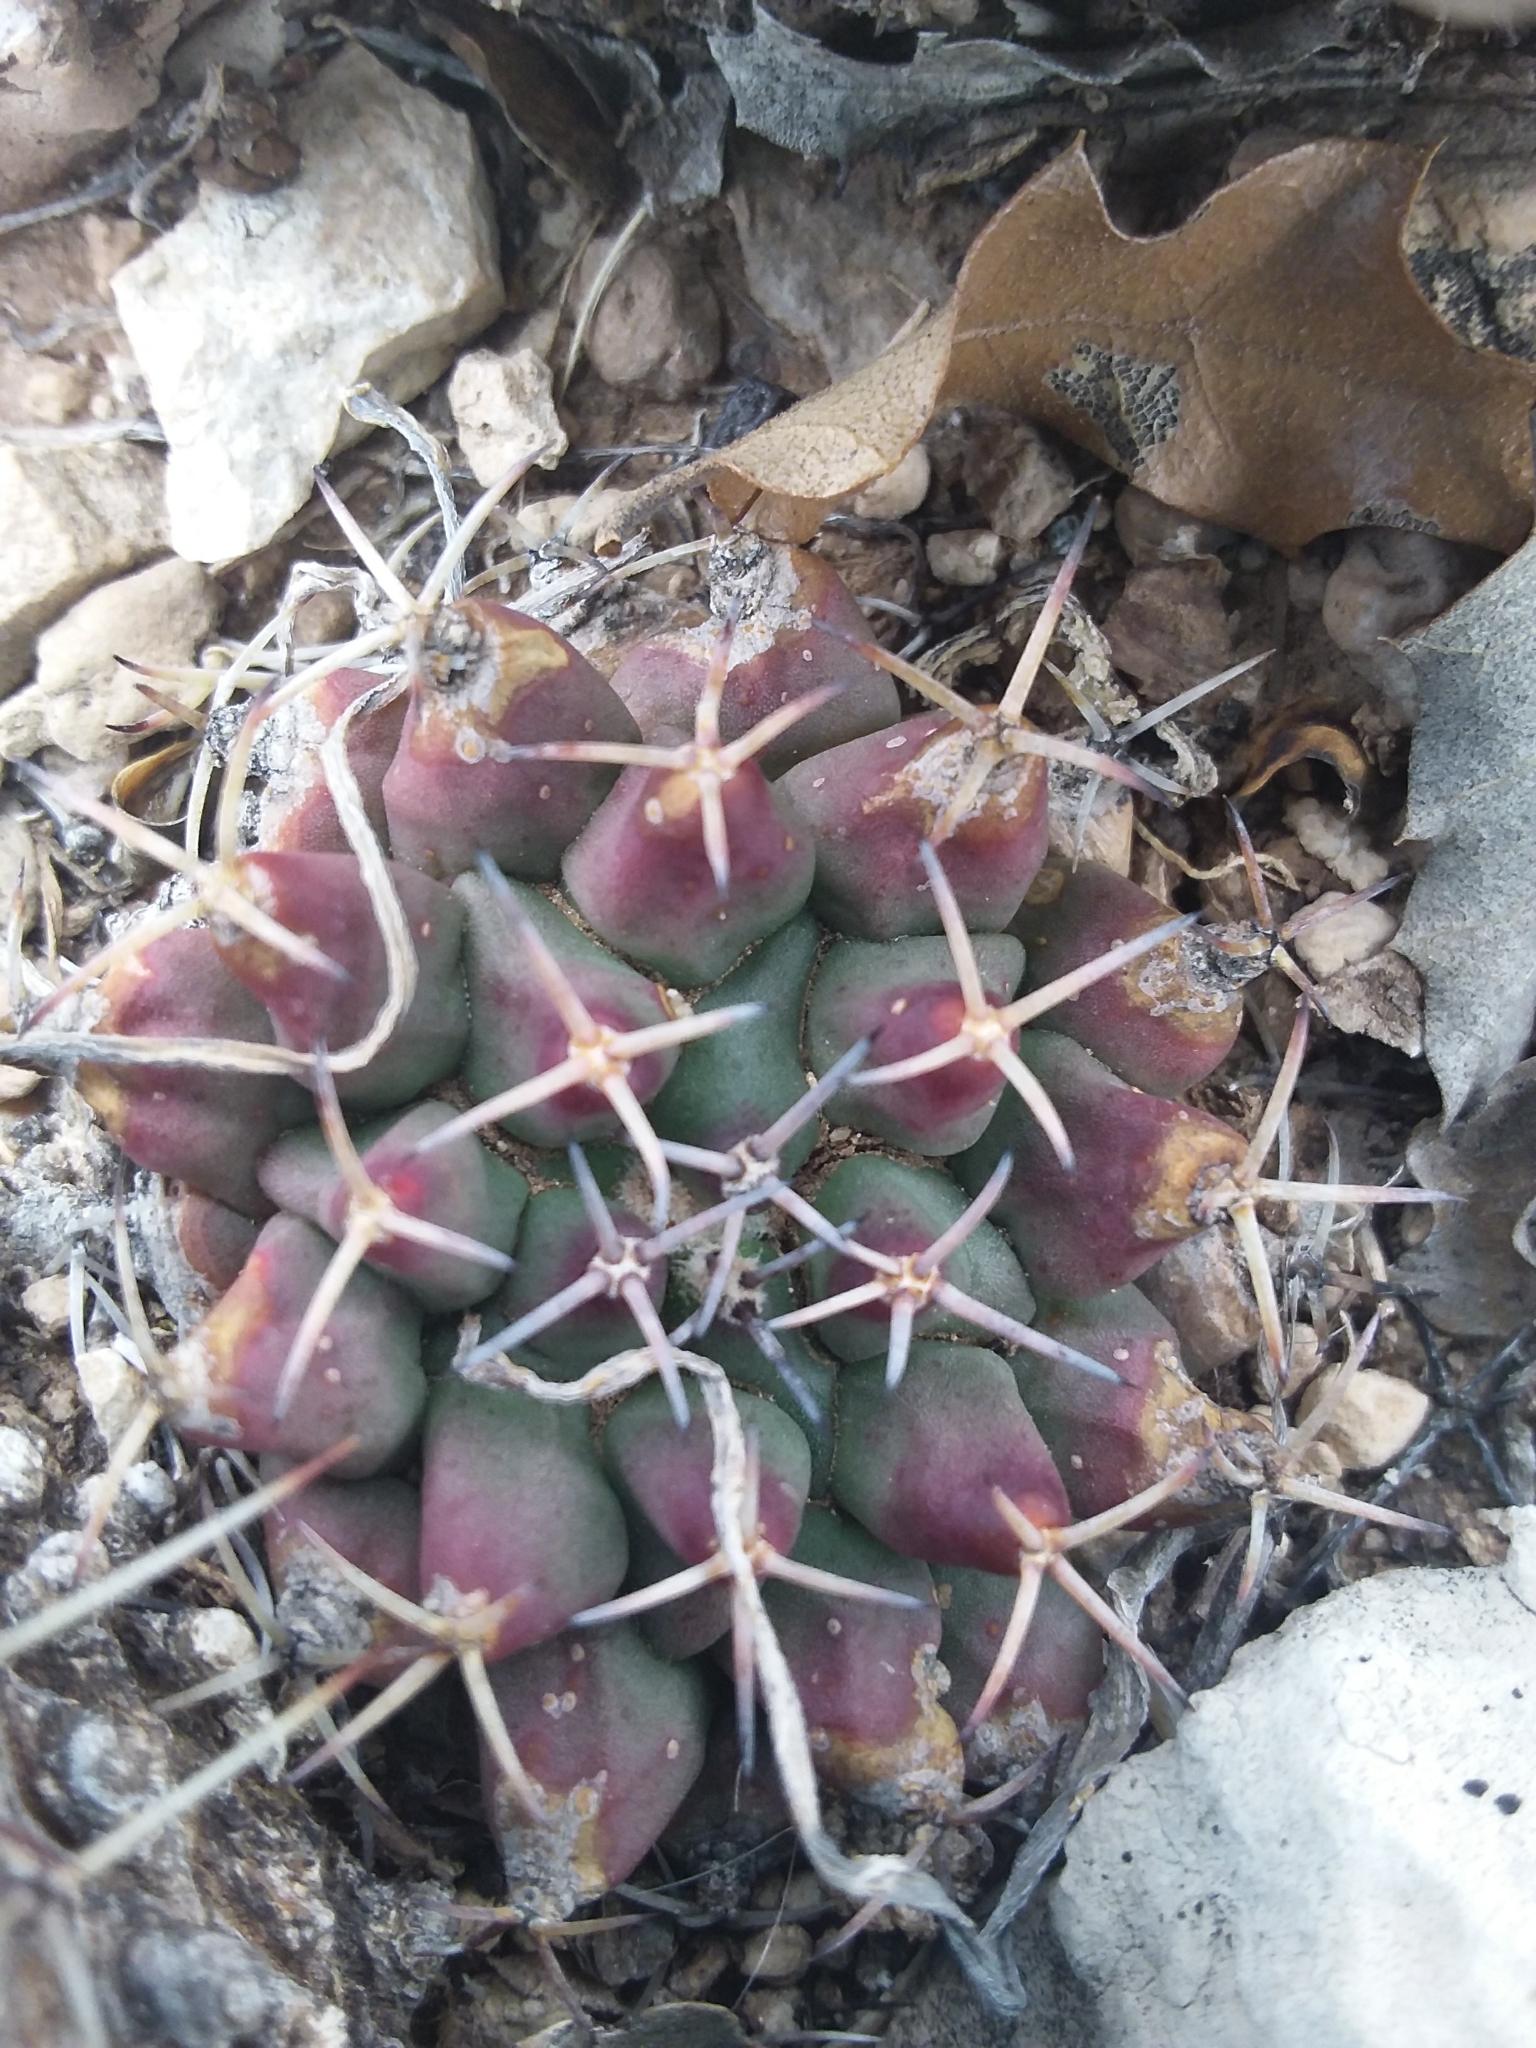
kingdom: Plantae
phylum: Tracheophyta
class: Magnoliopsida
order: Caryophyllales
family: Cactaceae
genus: Mammillaria
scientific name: Mammillaria heyderi
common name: Little nipple cactus
